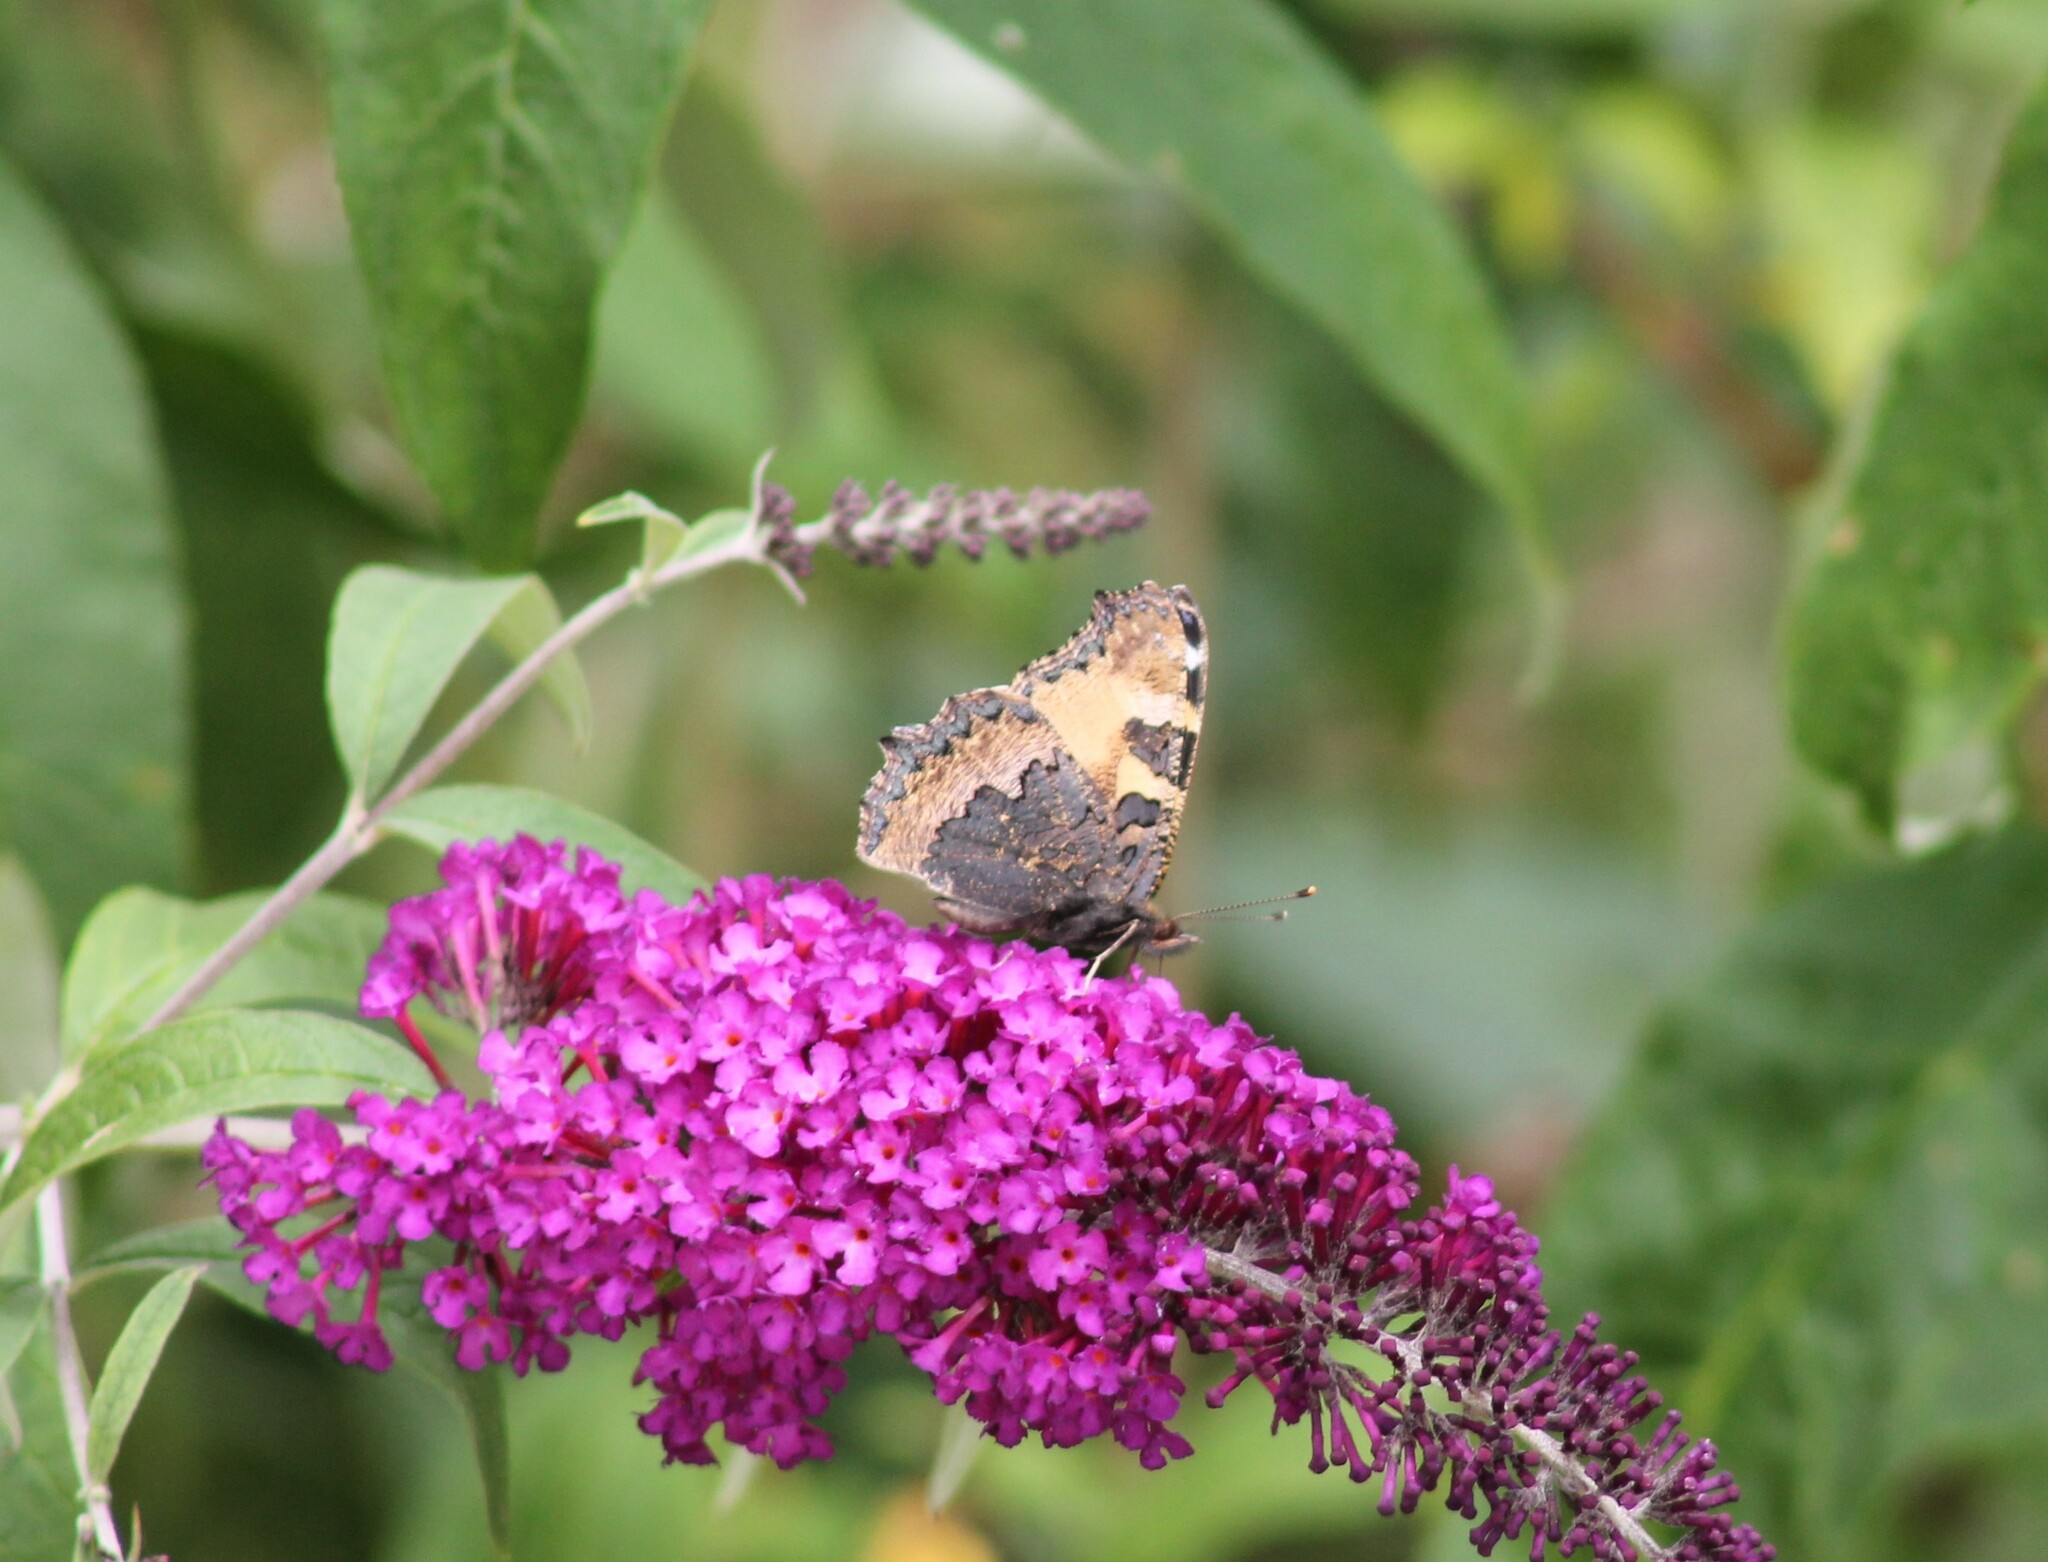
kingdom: Animalia
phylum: Arthropoda
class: Insecta
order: Lepidoptera
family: Nymphalidae
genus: Aglais
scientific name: Aglais urticae
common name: Small tortoiseshell
